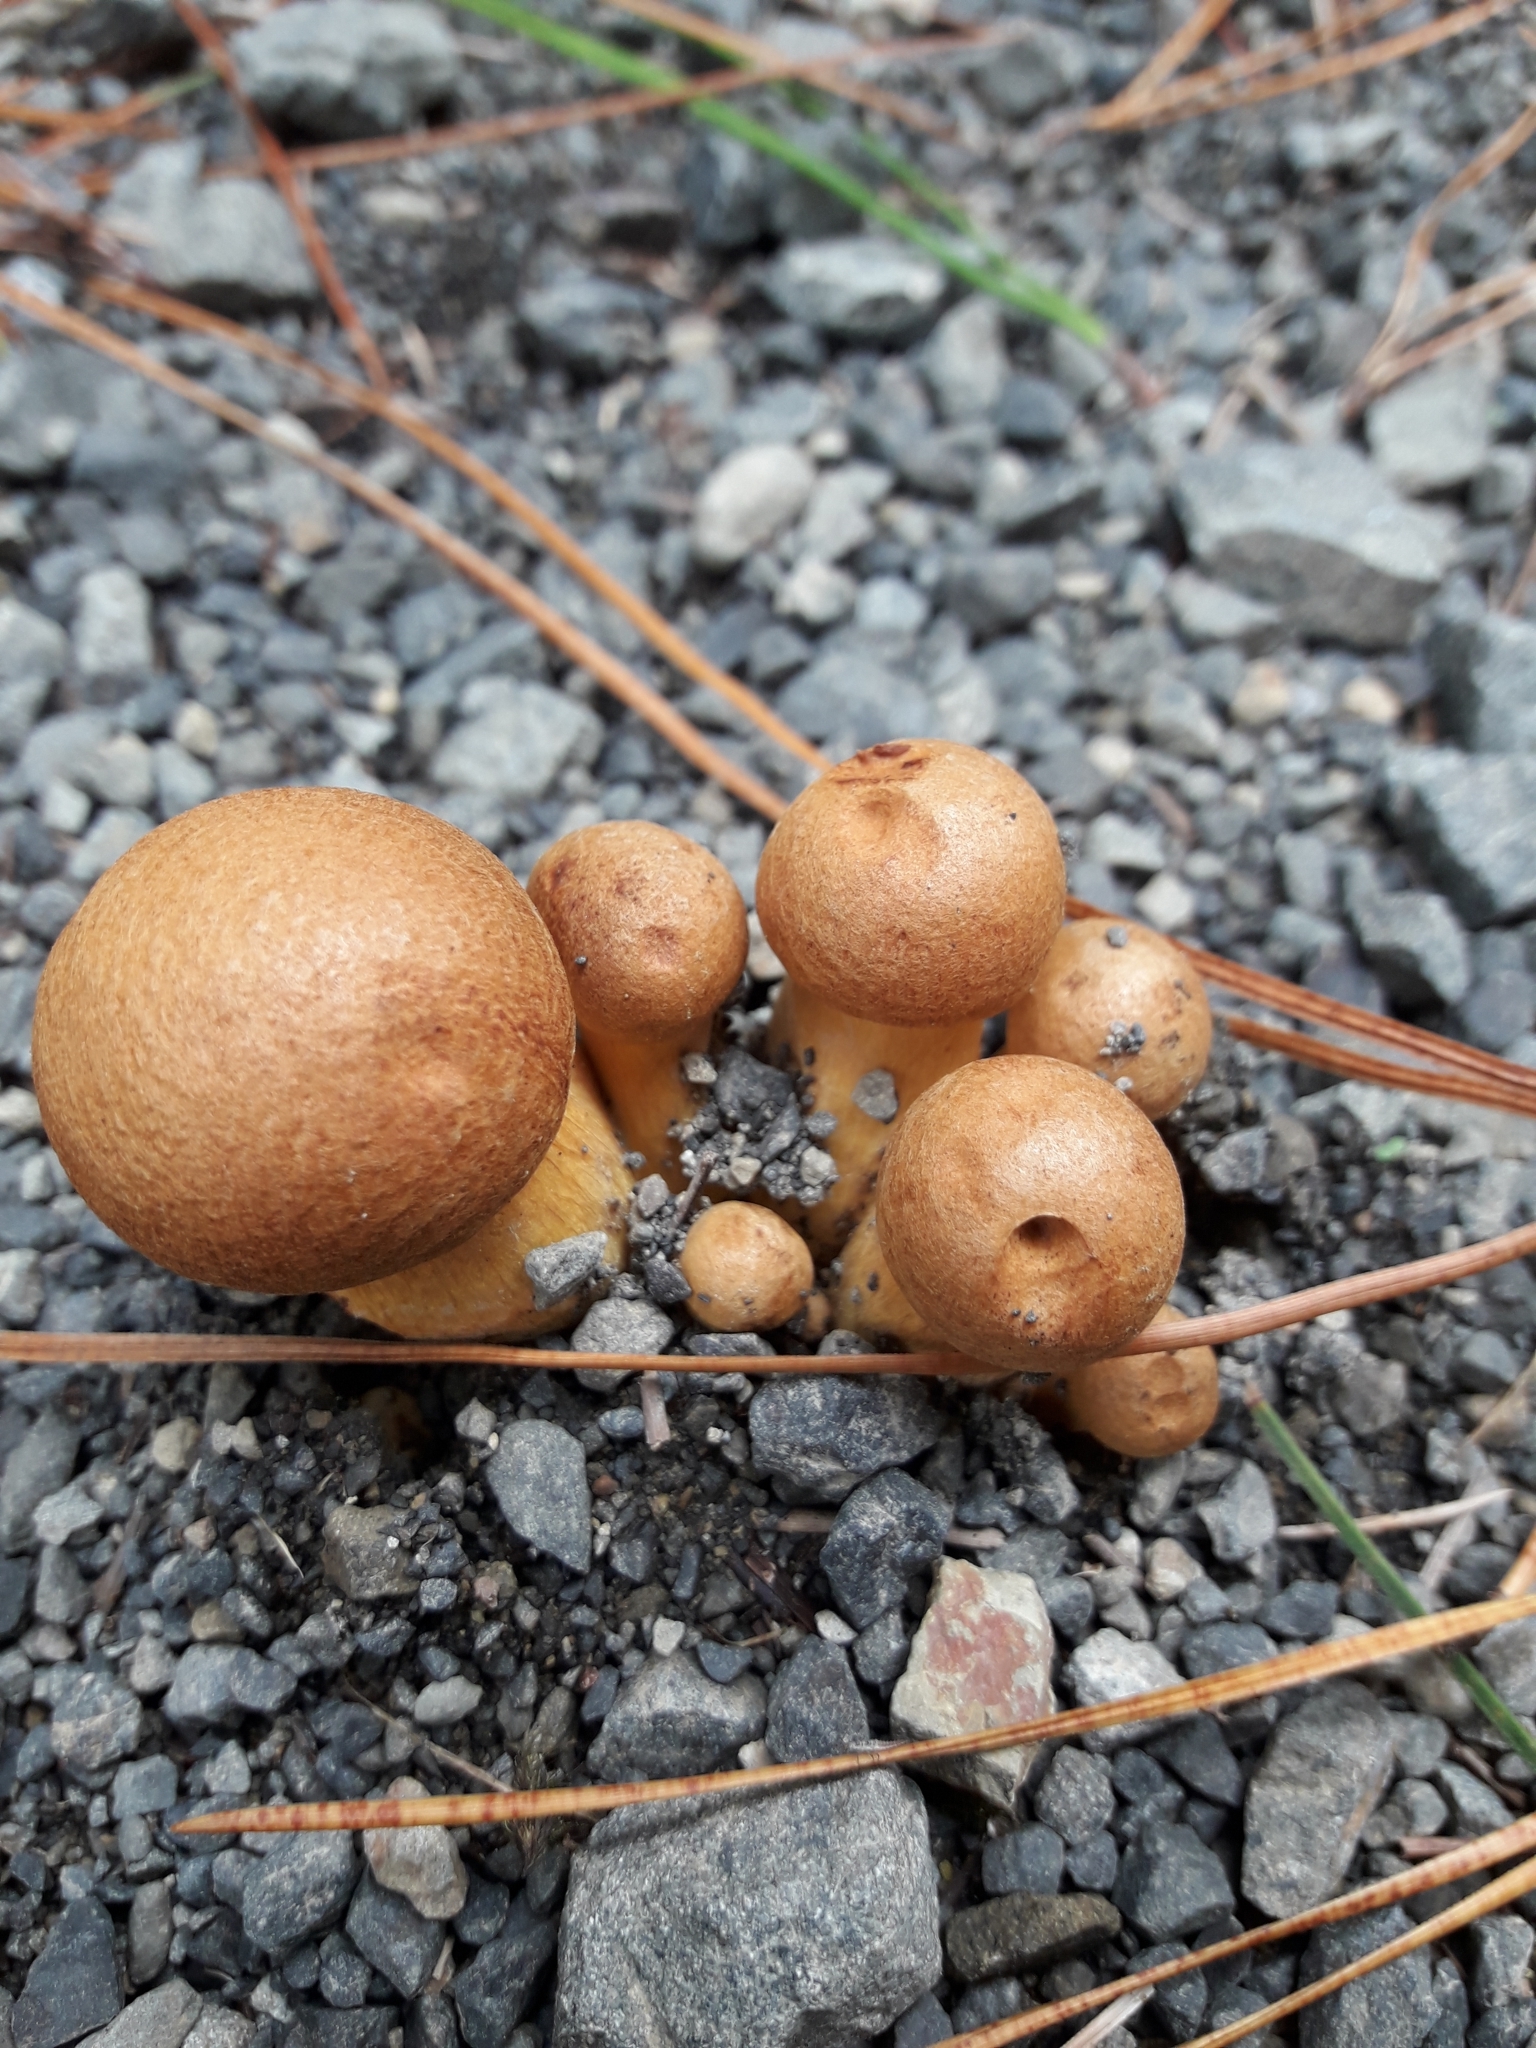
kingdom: Fungi
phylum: Basidiomycota
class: Agaricomycetes
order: Agaricales
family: Hymenogastraceae
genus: Gymnopilus
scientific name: Gymnopilus junonius
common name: Spectacular rustgill
